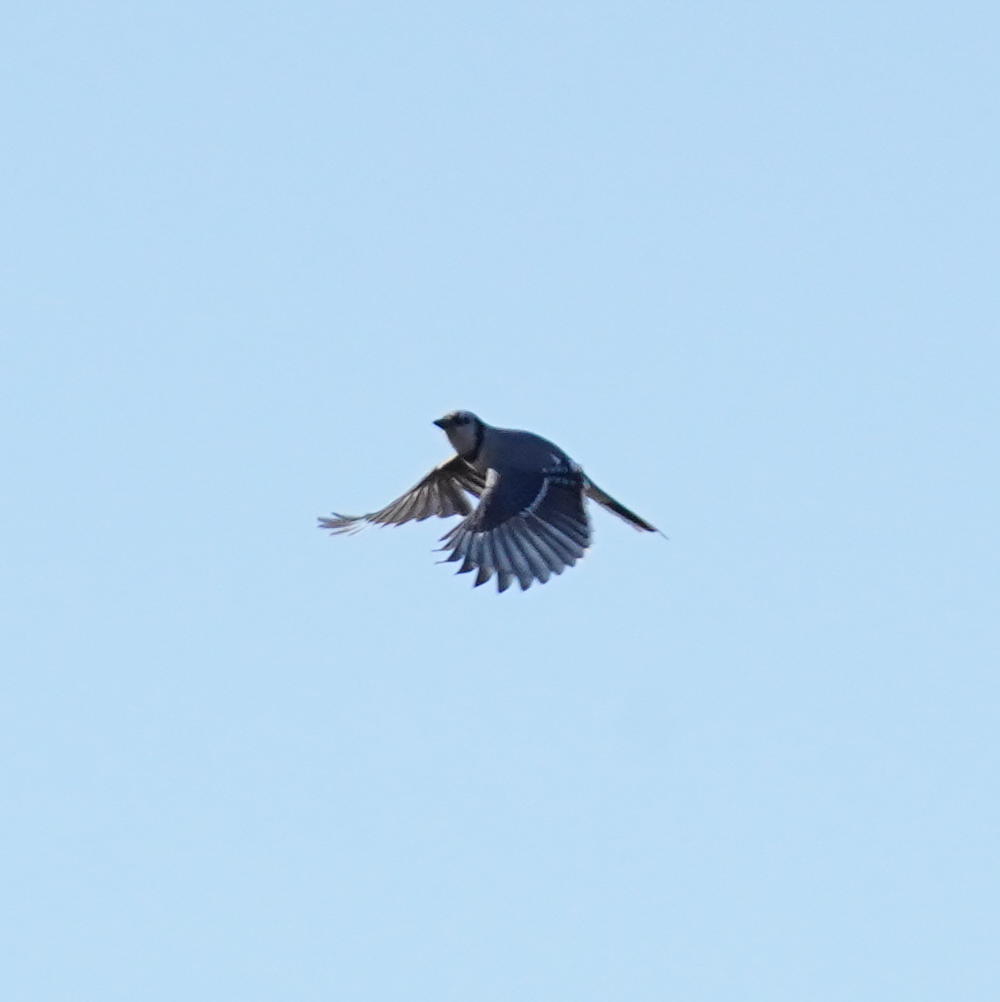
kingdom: Animalia
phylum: Chordata
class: Aves
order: Passeriformes
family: Corvidae
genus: Cyanocitta
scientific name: Cyanocitta cristata
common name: Blue jay
